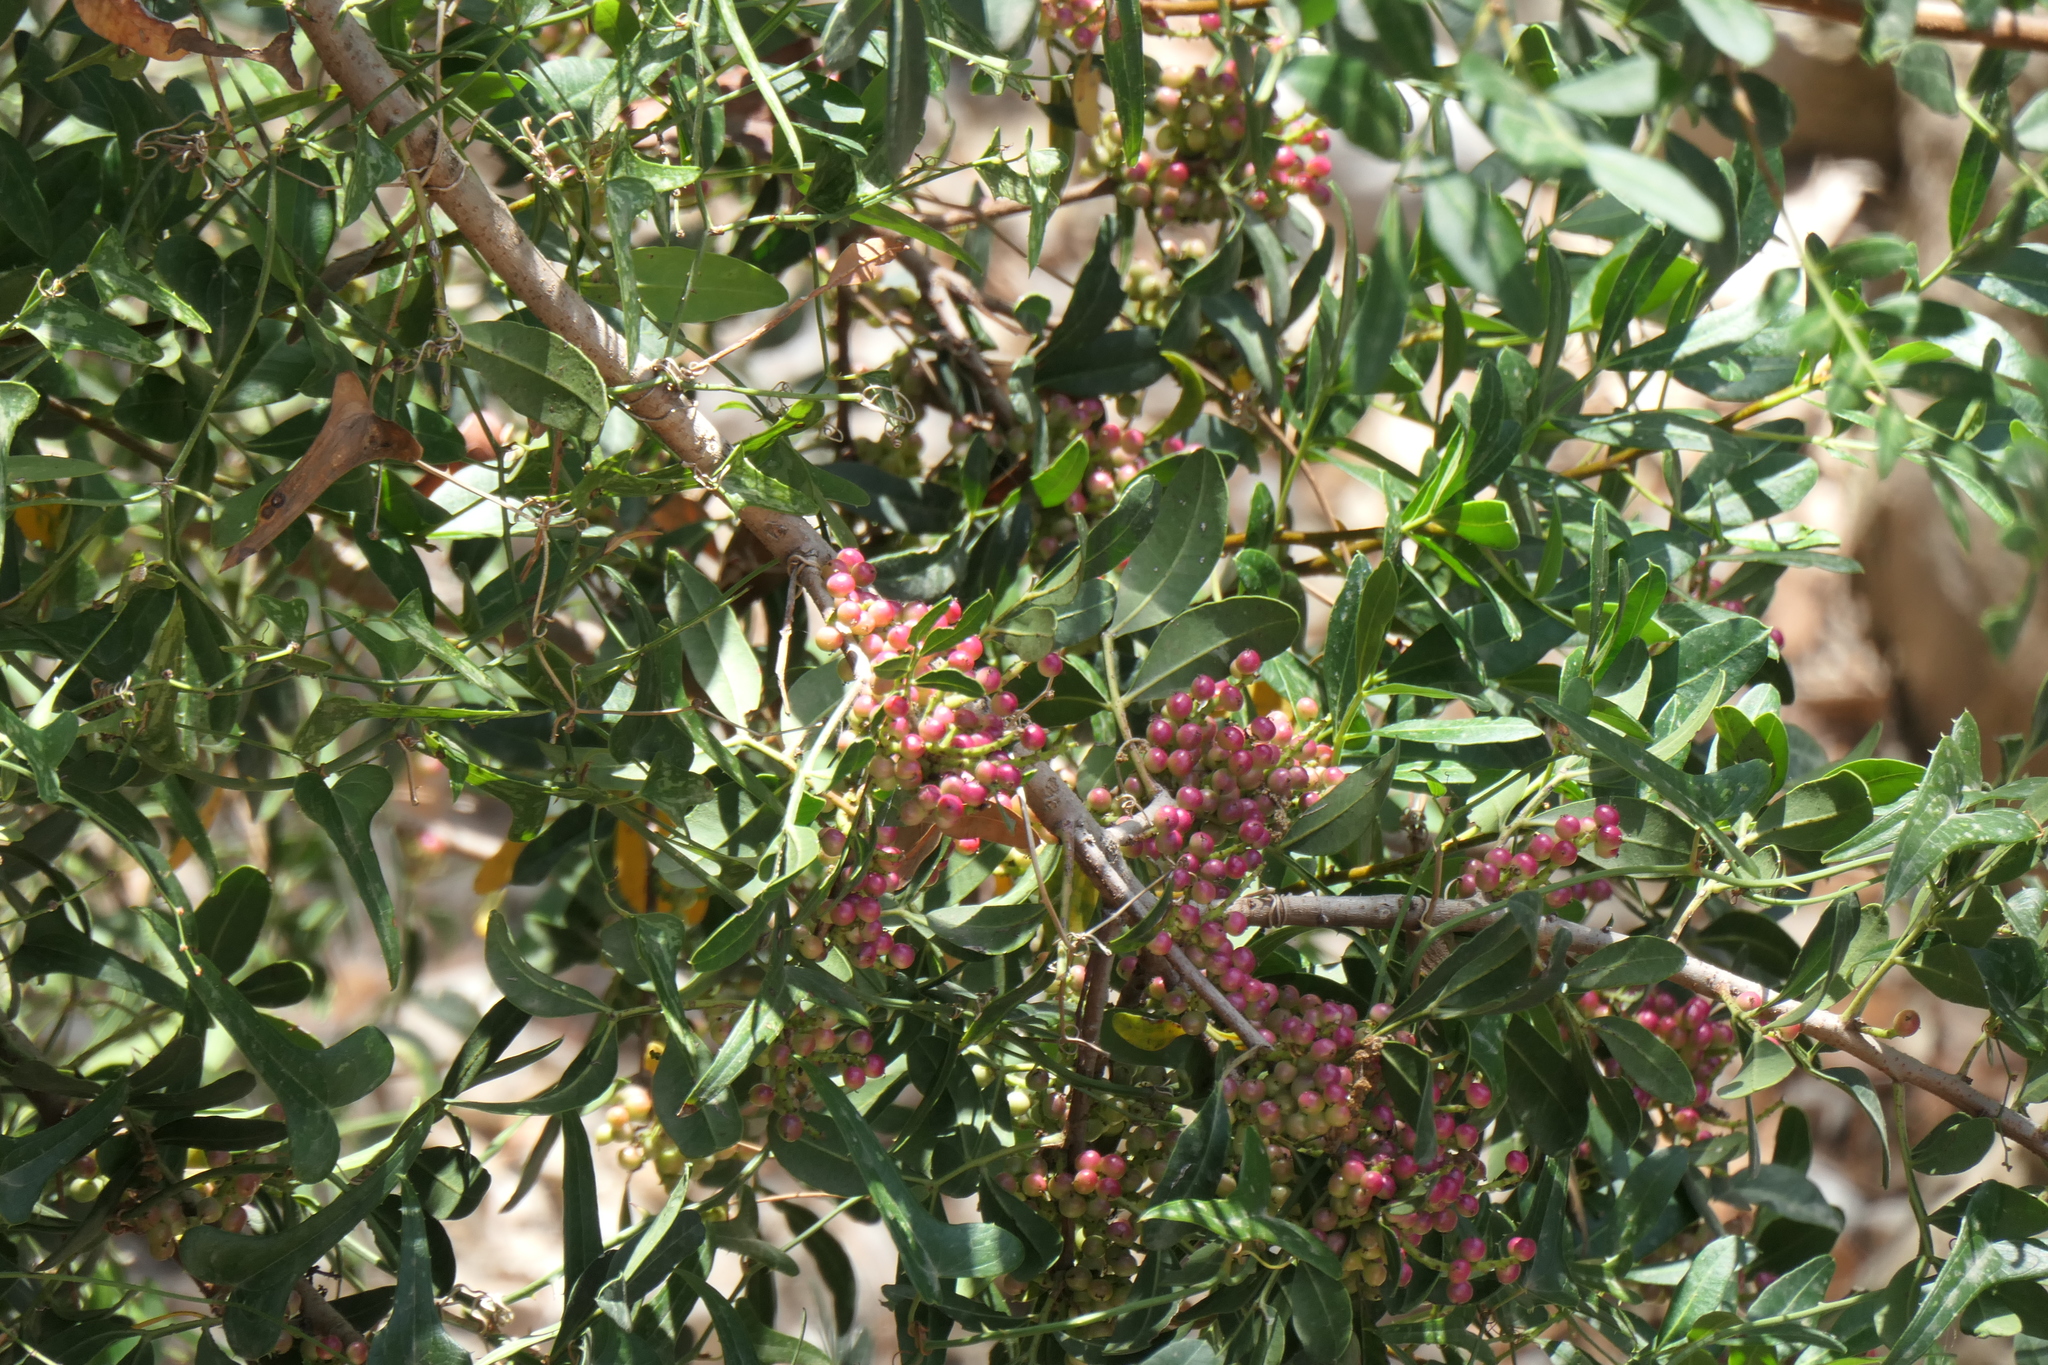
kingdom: Plantae
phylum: Tracheophyta
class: Magnoliopsida
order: Sapindales
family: Anacardiaceae
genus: Pistacia
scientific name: Pistacia lentiscus
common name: Lentisk
